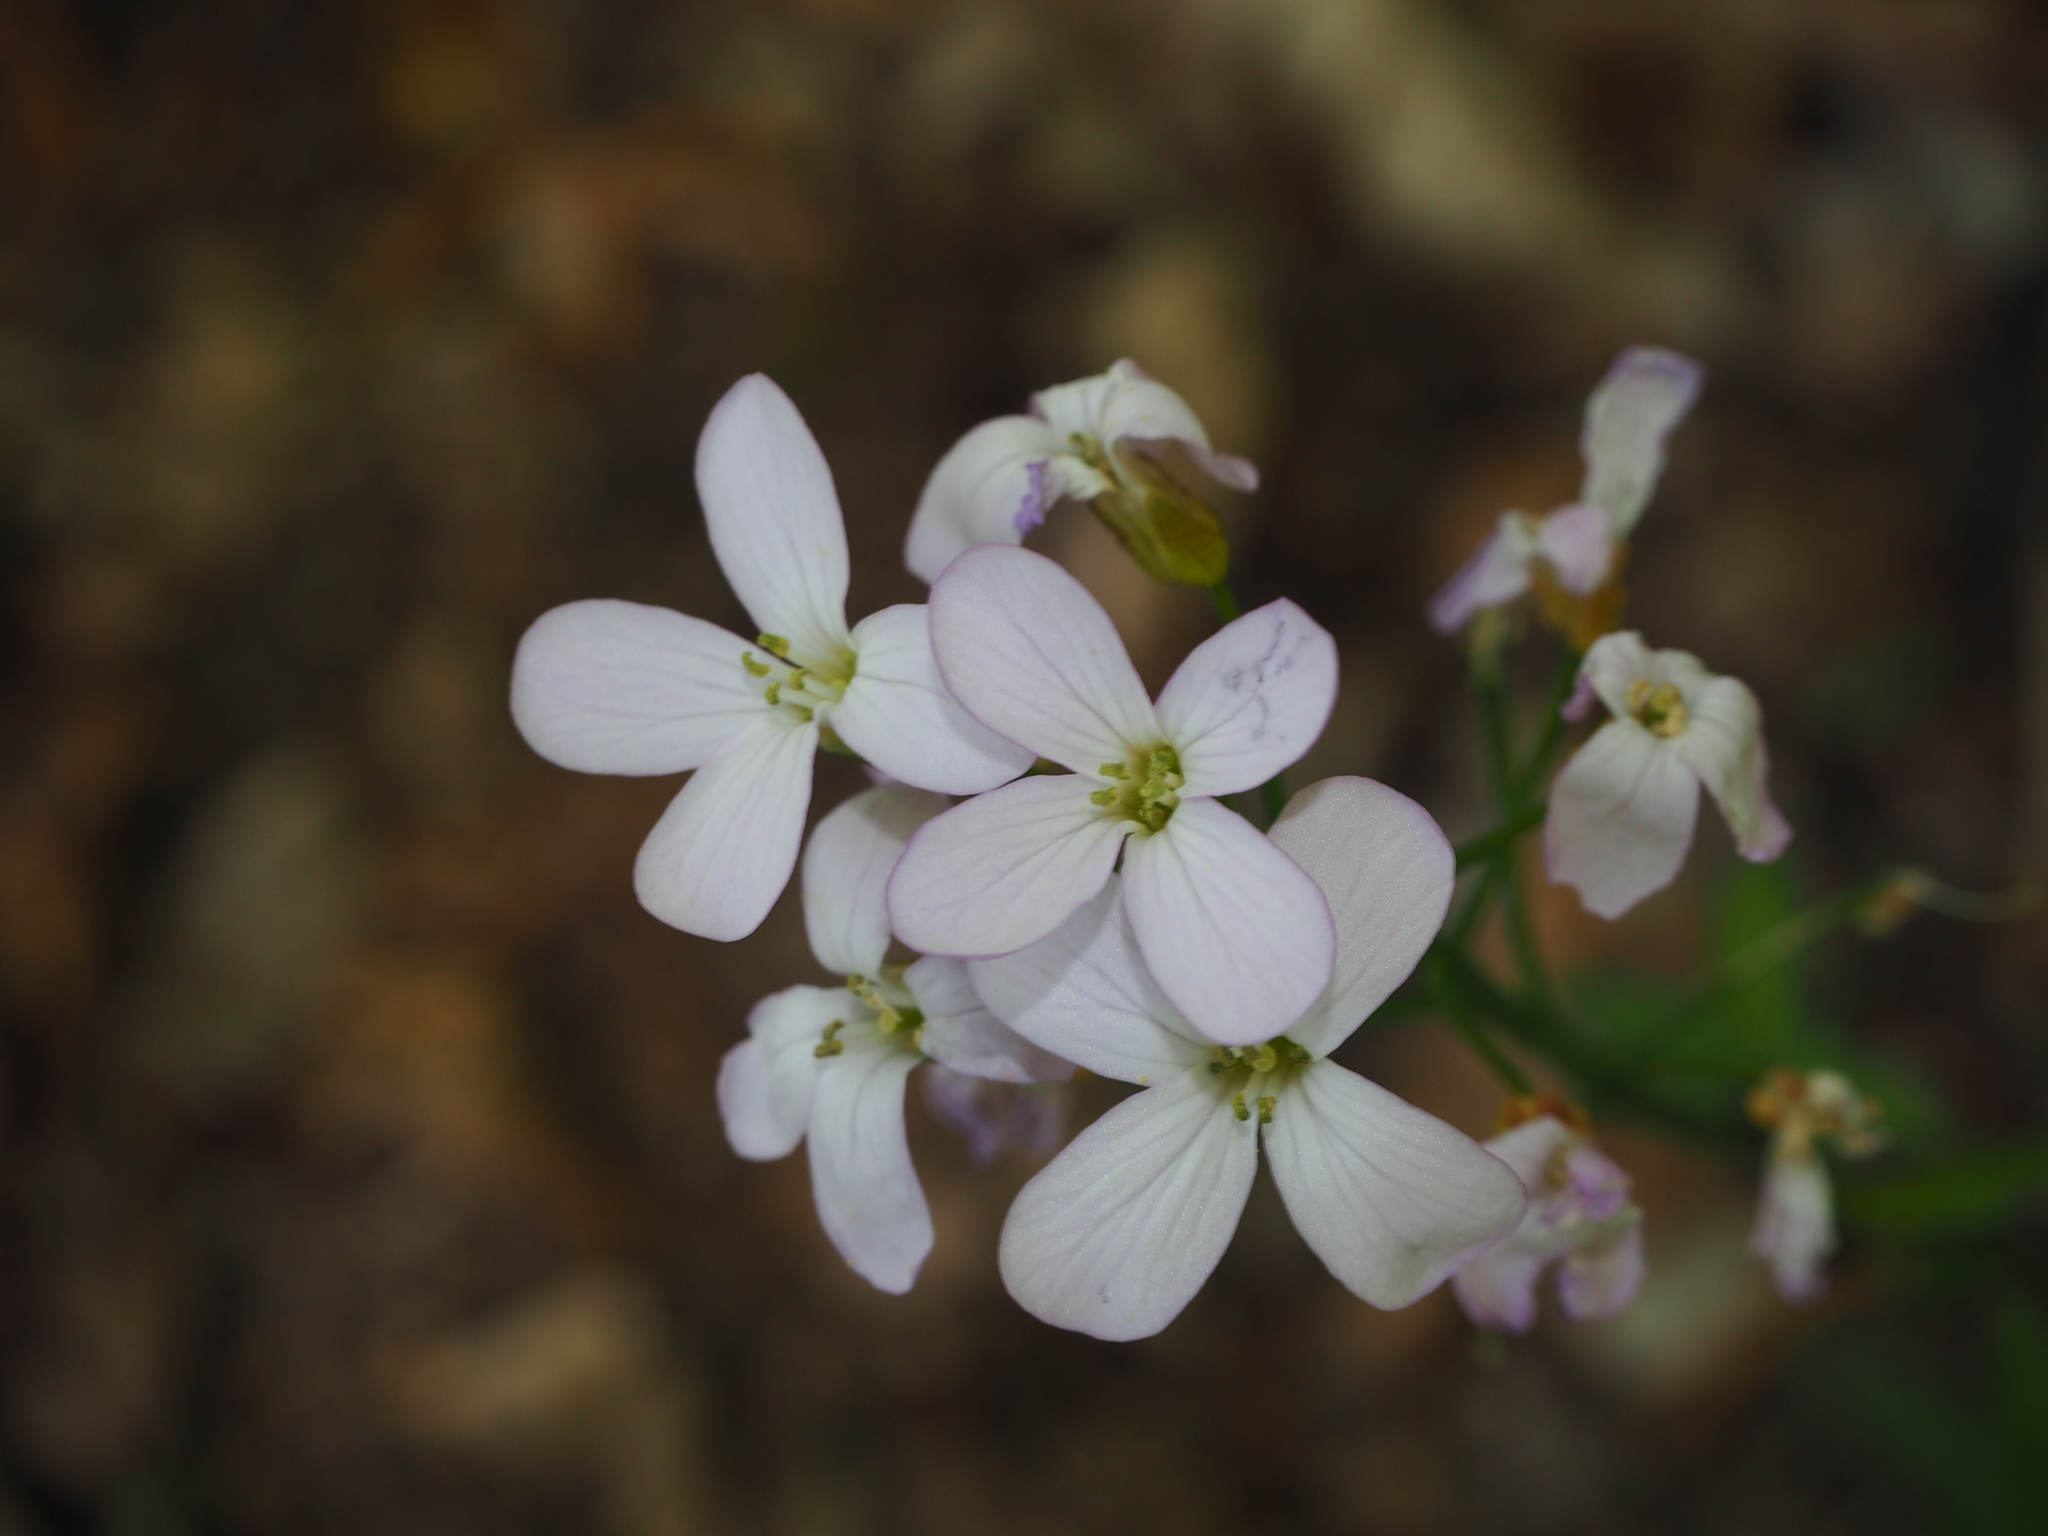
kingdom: Plantae
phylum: Tracheophyta
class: Magnoliopsida
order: Brassicales
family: Brassicaceae
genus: Cardamine
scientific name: Cardamine bulbifera
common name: Coralroot bittercress
